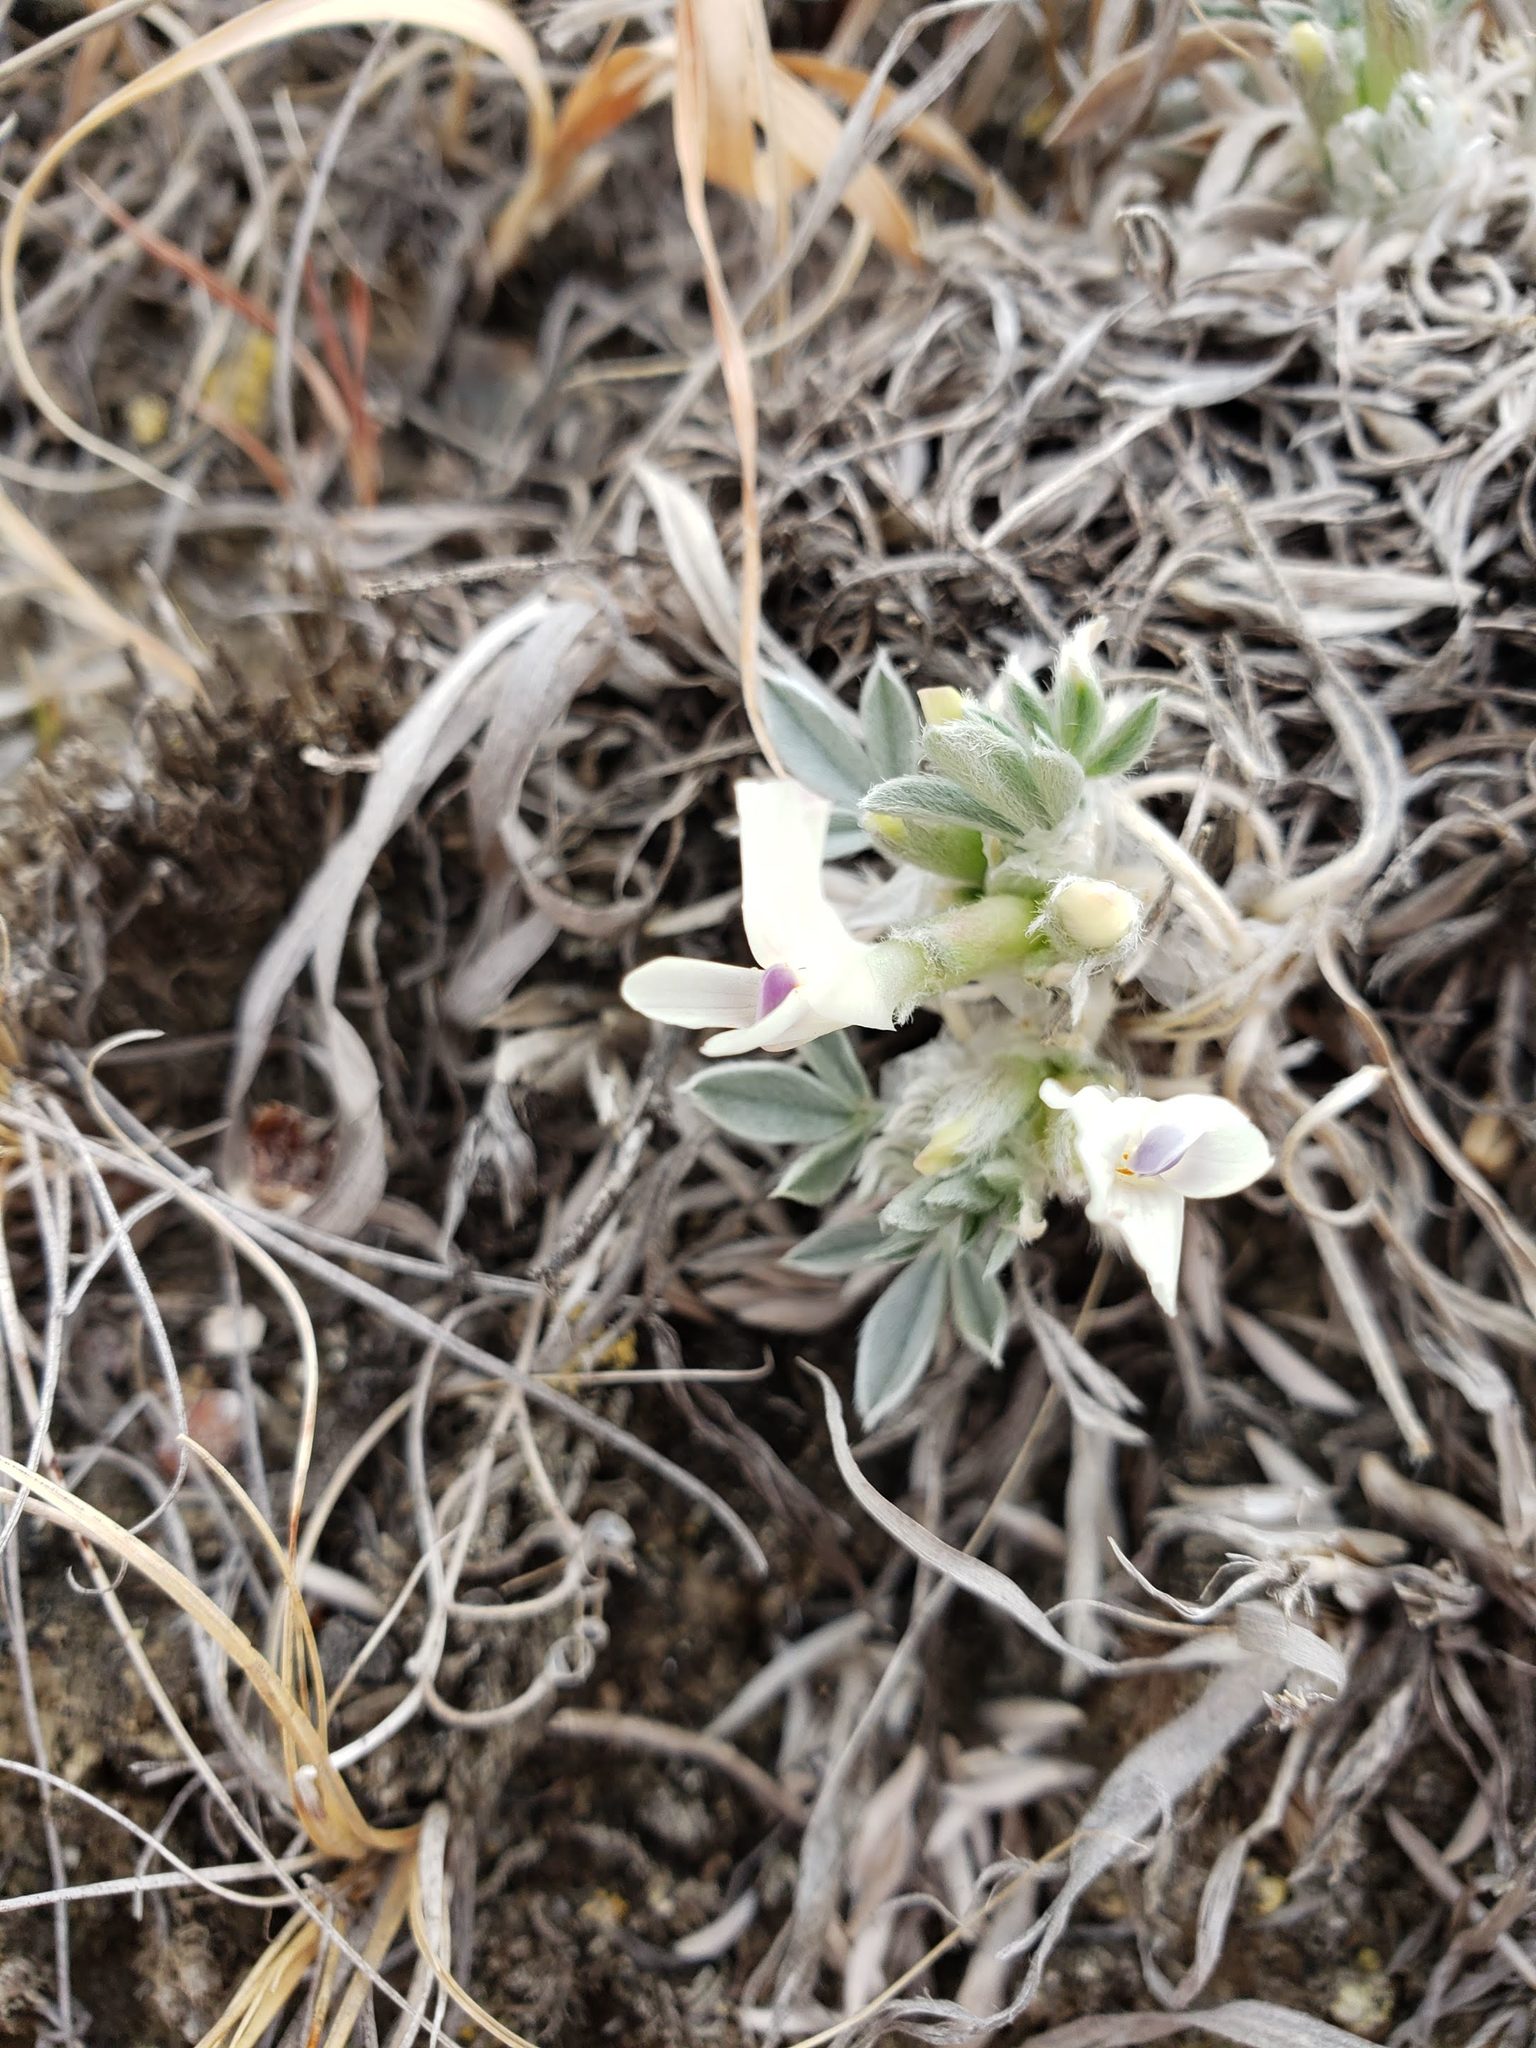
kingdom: Plantae
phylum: Tracheophyta
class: Magnoliopsida
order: Fabales
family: Fabaceae
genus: Astragalus
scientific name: Astragalus gilviflorus
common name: Cushion milk-vetch
